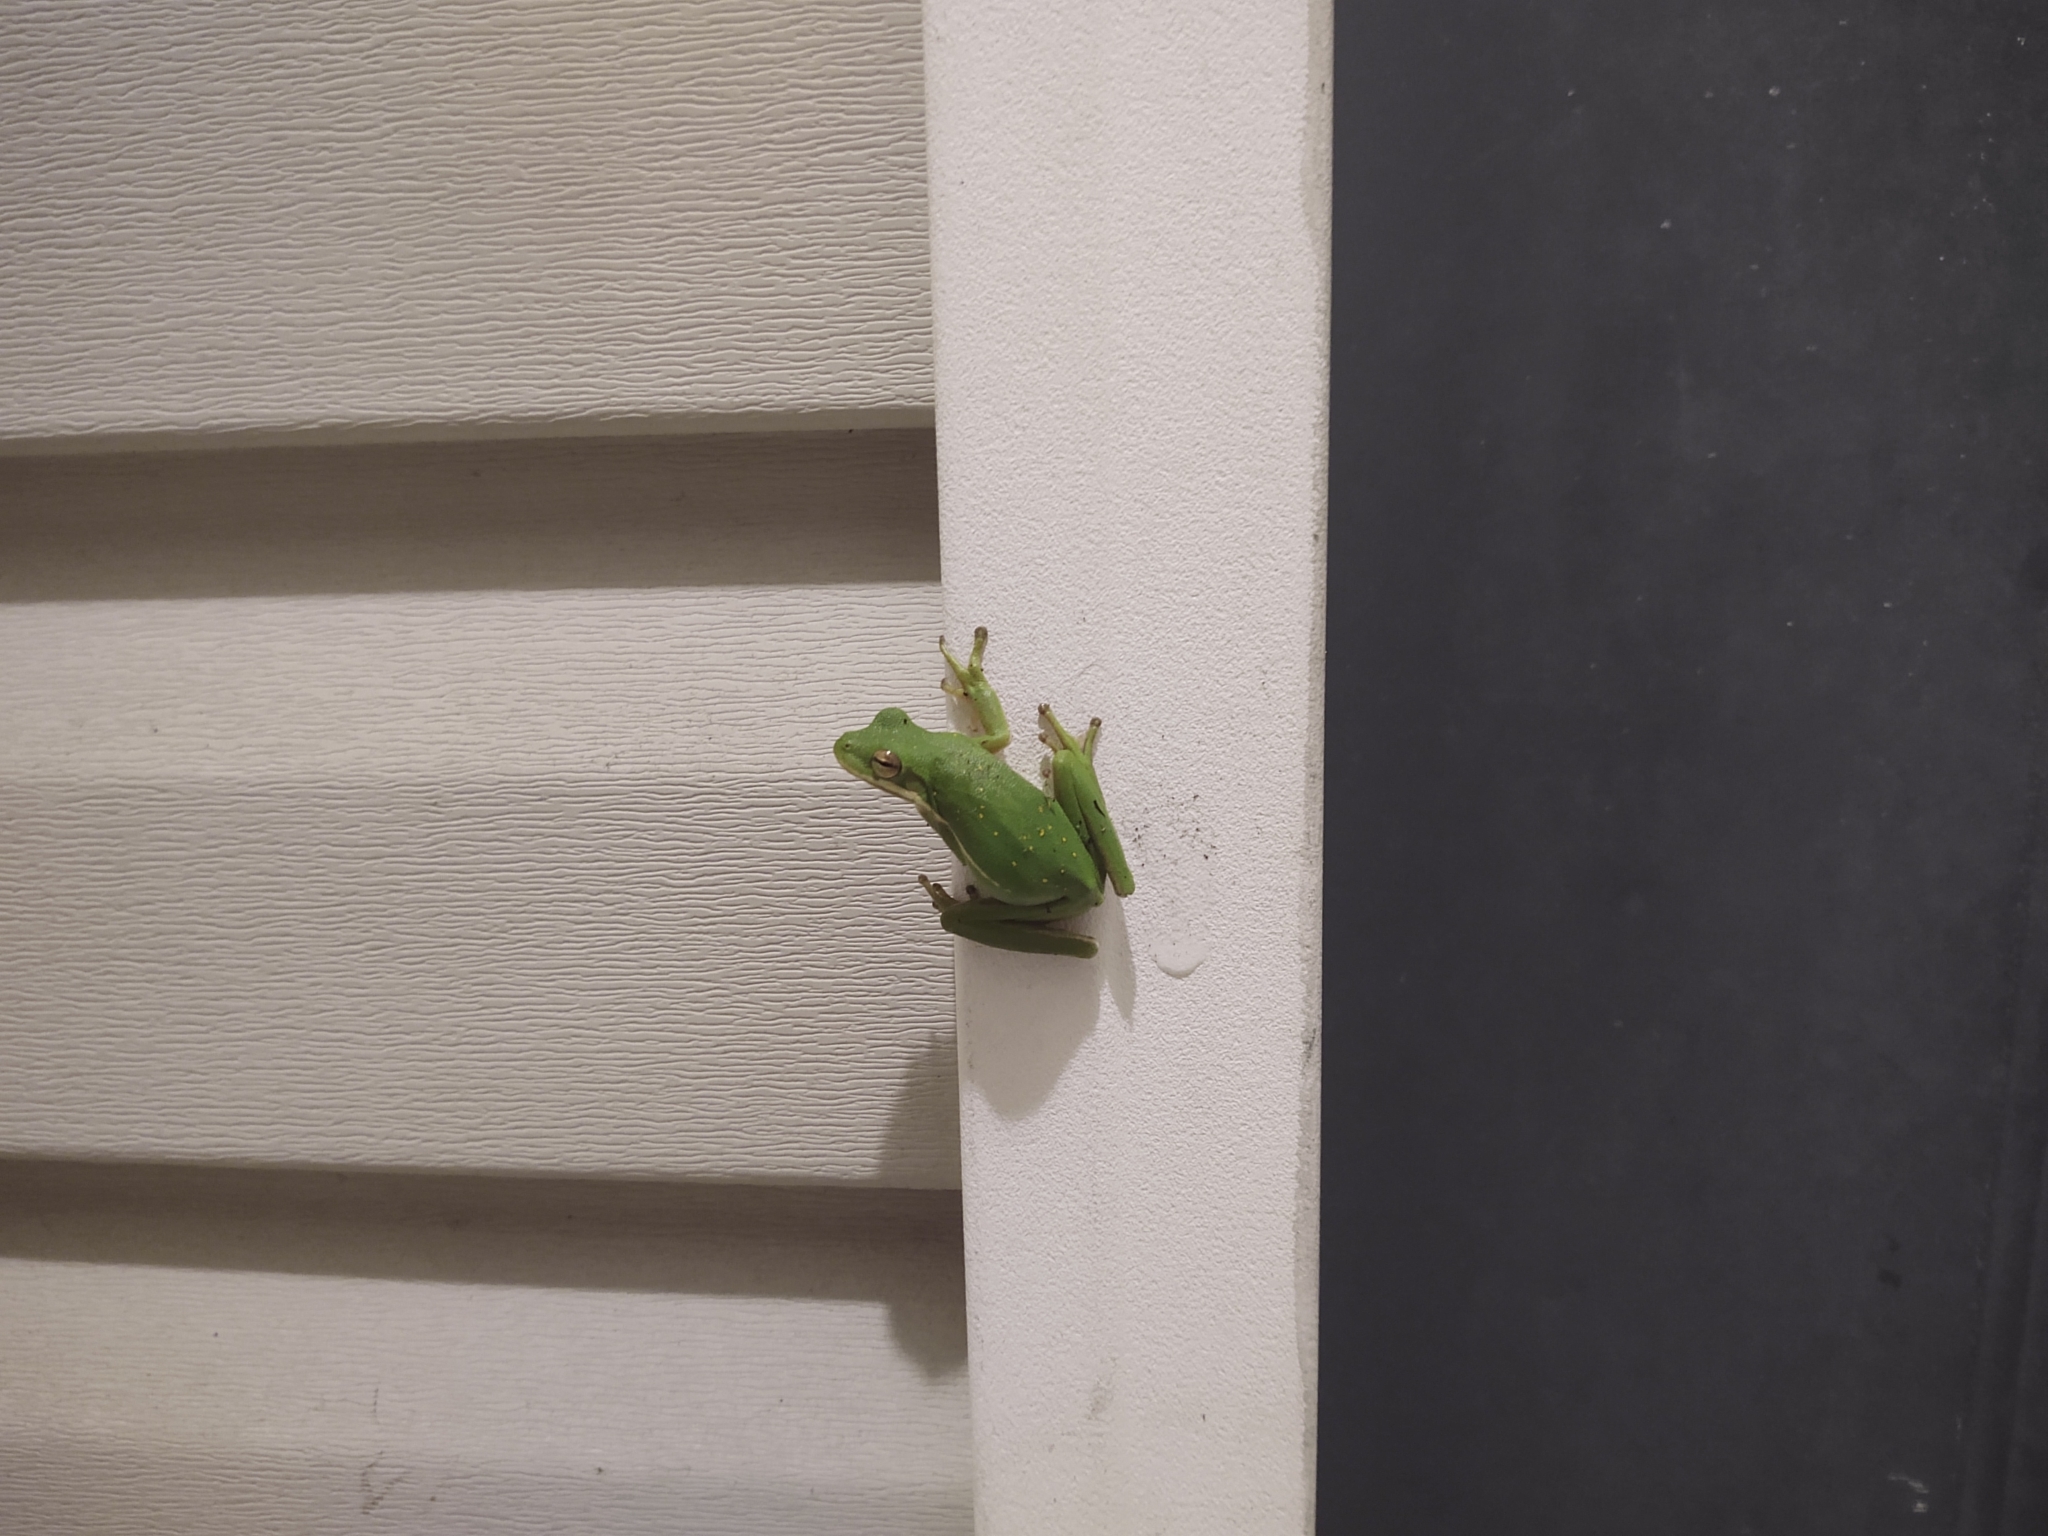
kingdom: Animalia
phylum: Chordata
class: Amphibia
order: Anura
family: Hylidae
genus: Dryophytes
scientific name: Dryophytes cinereus
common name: Green treefrog
